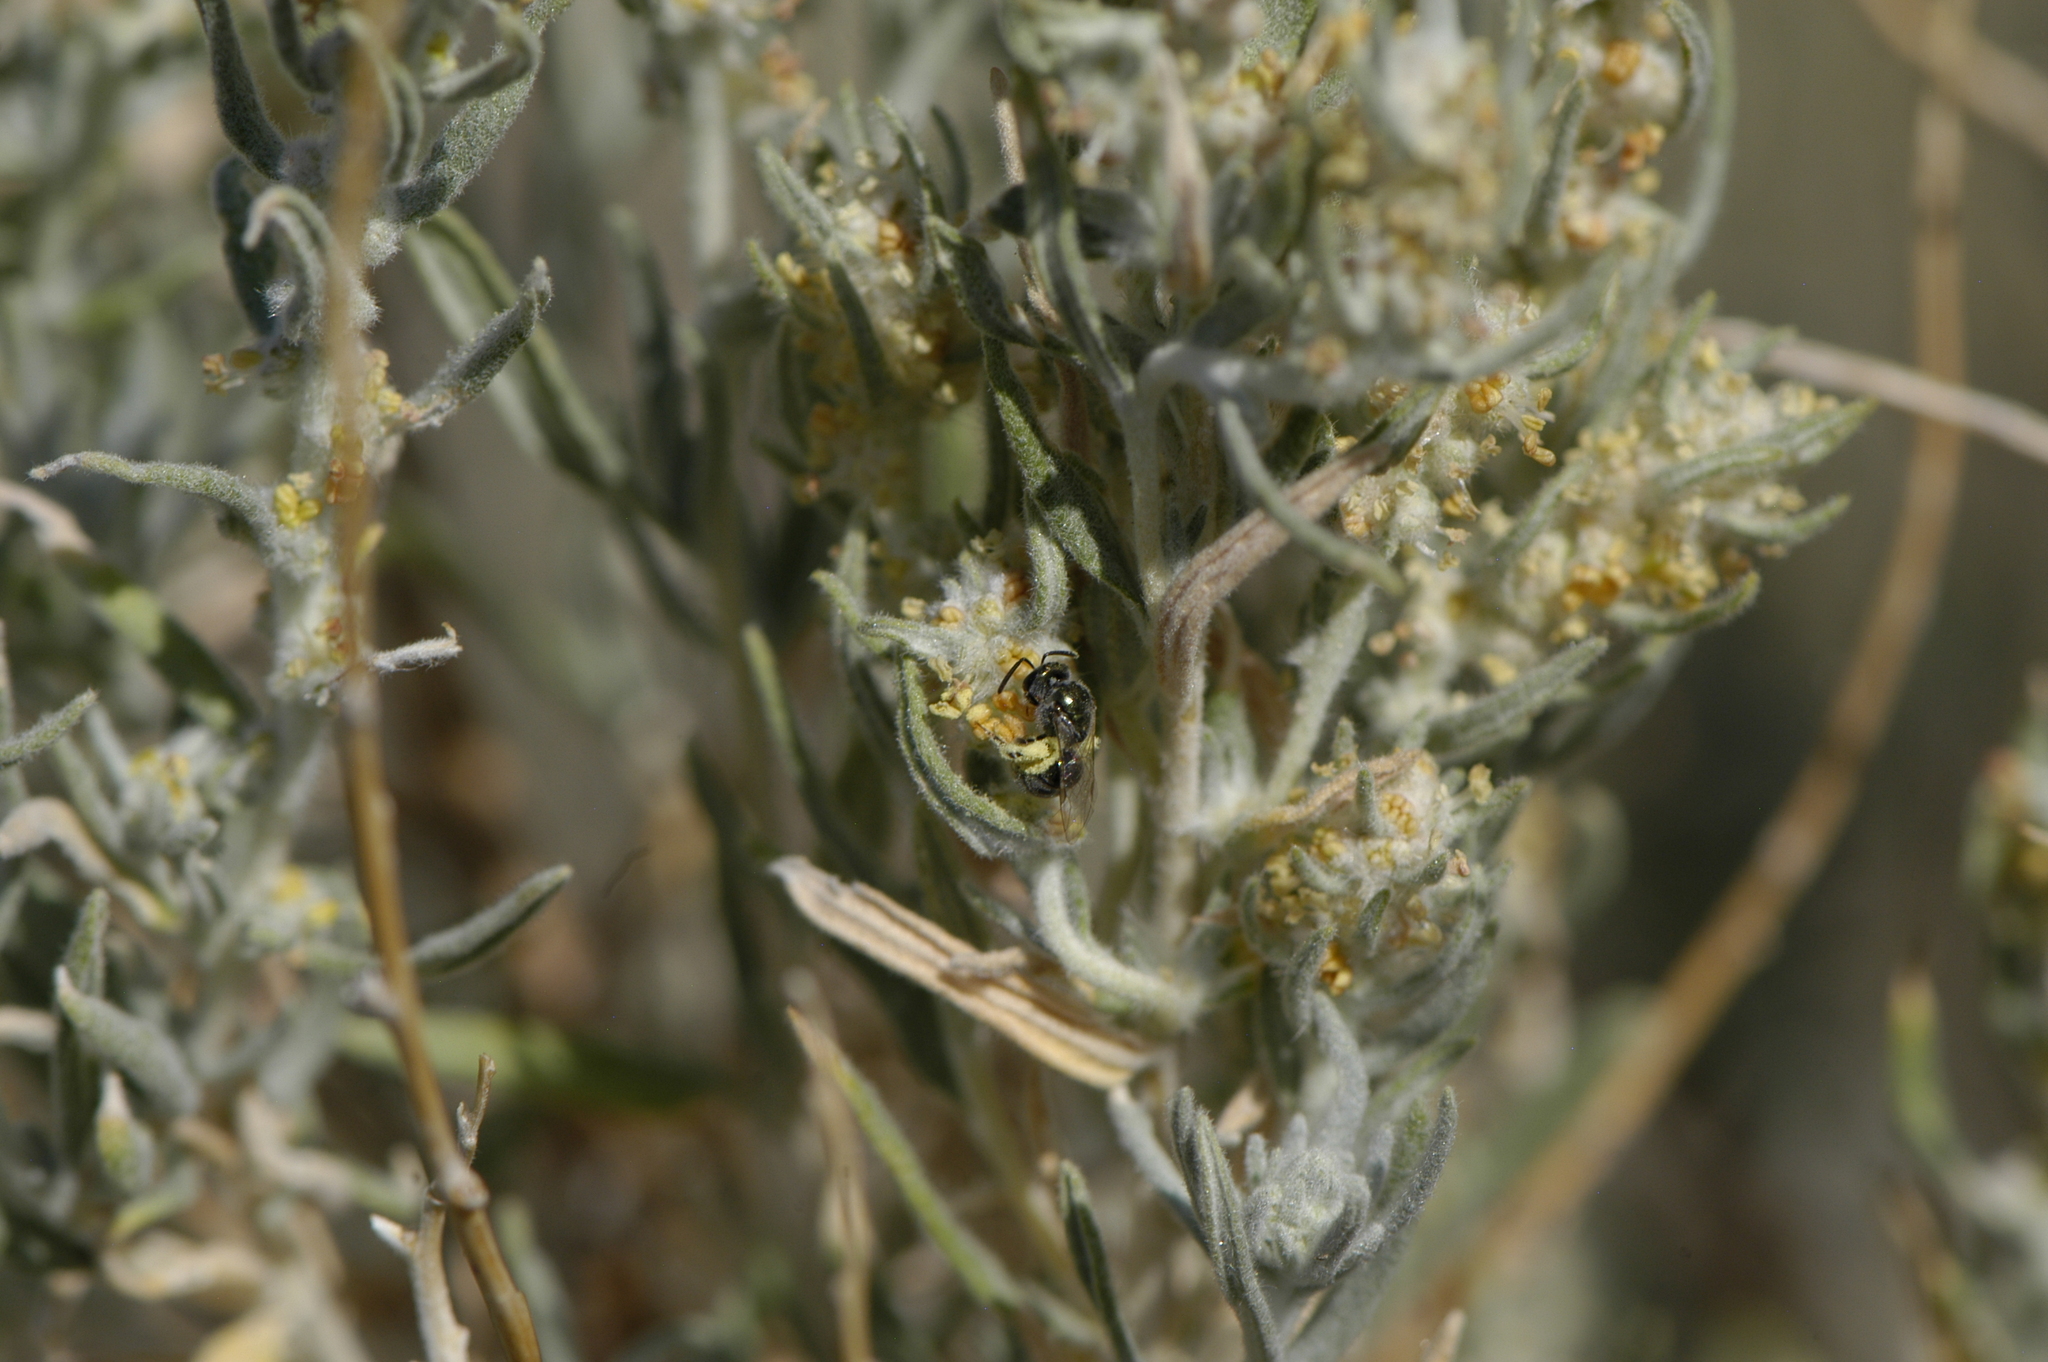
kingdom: Plantae
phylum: Tracheophyta
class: Magnoliopsida
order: Caryophyllales
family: Amaranthaceae
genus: Krascheninnikovia
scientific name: Krascheninnikovia lanata
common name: Winterfat
